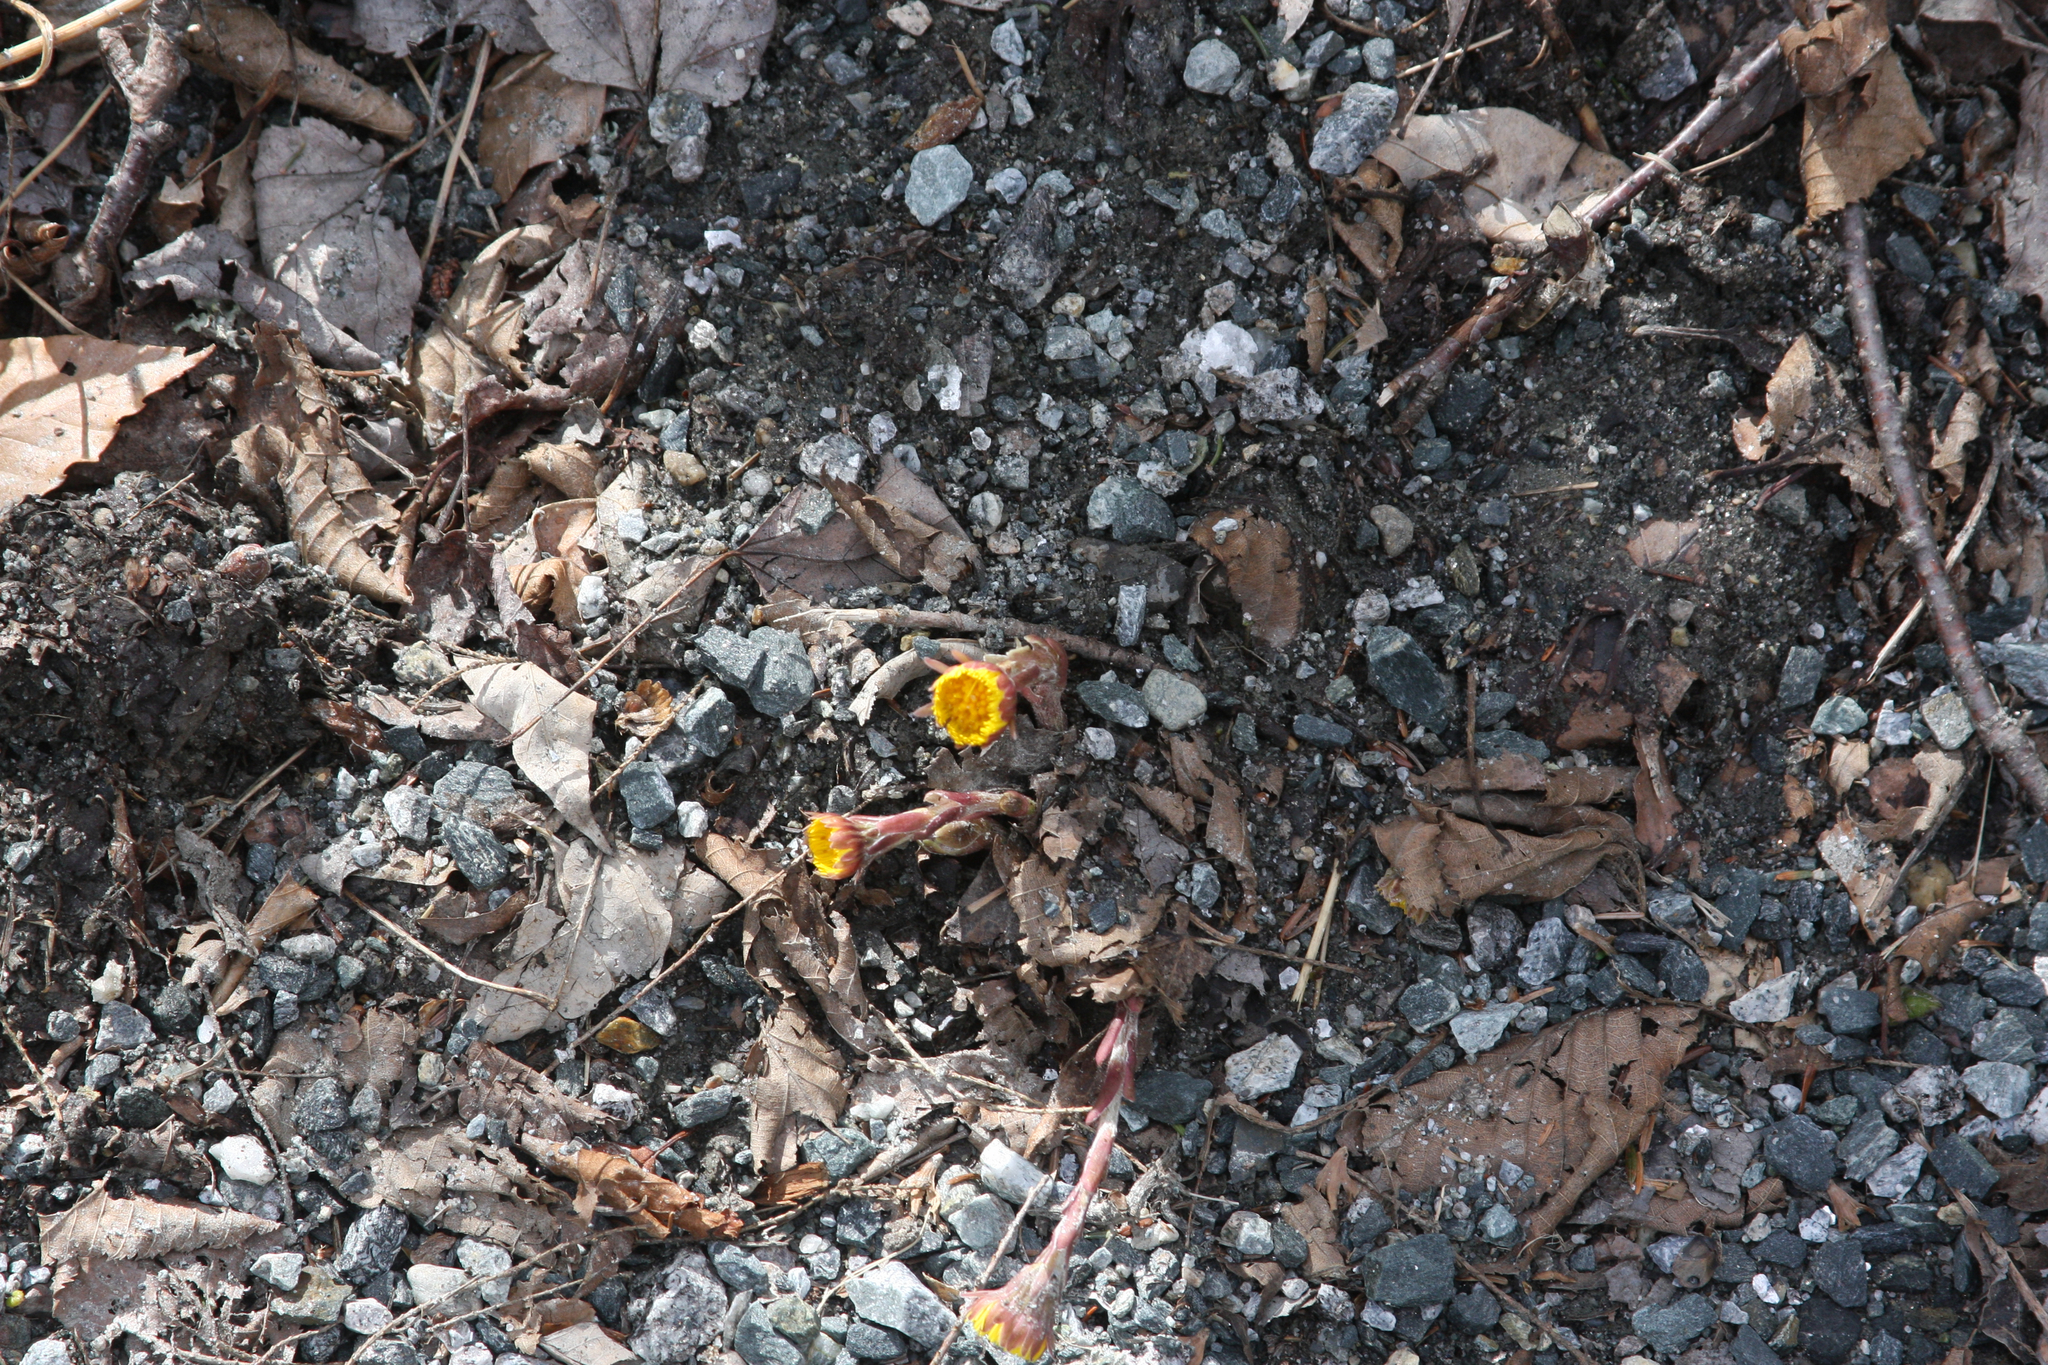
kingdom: Plantae
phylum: Tracheophyta
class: Magnoliopsida
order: Asterales
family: Asteraceae
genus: Tussilago
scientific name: Tussilago farfara
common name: Coltsfoot
